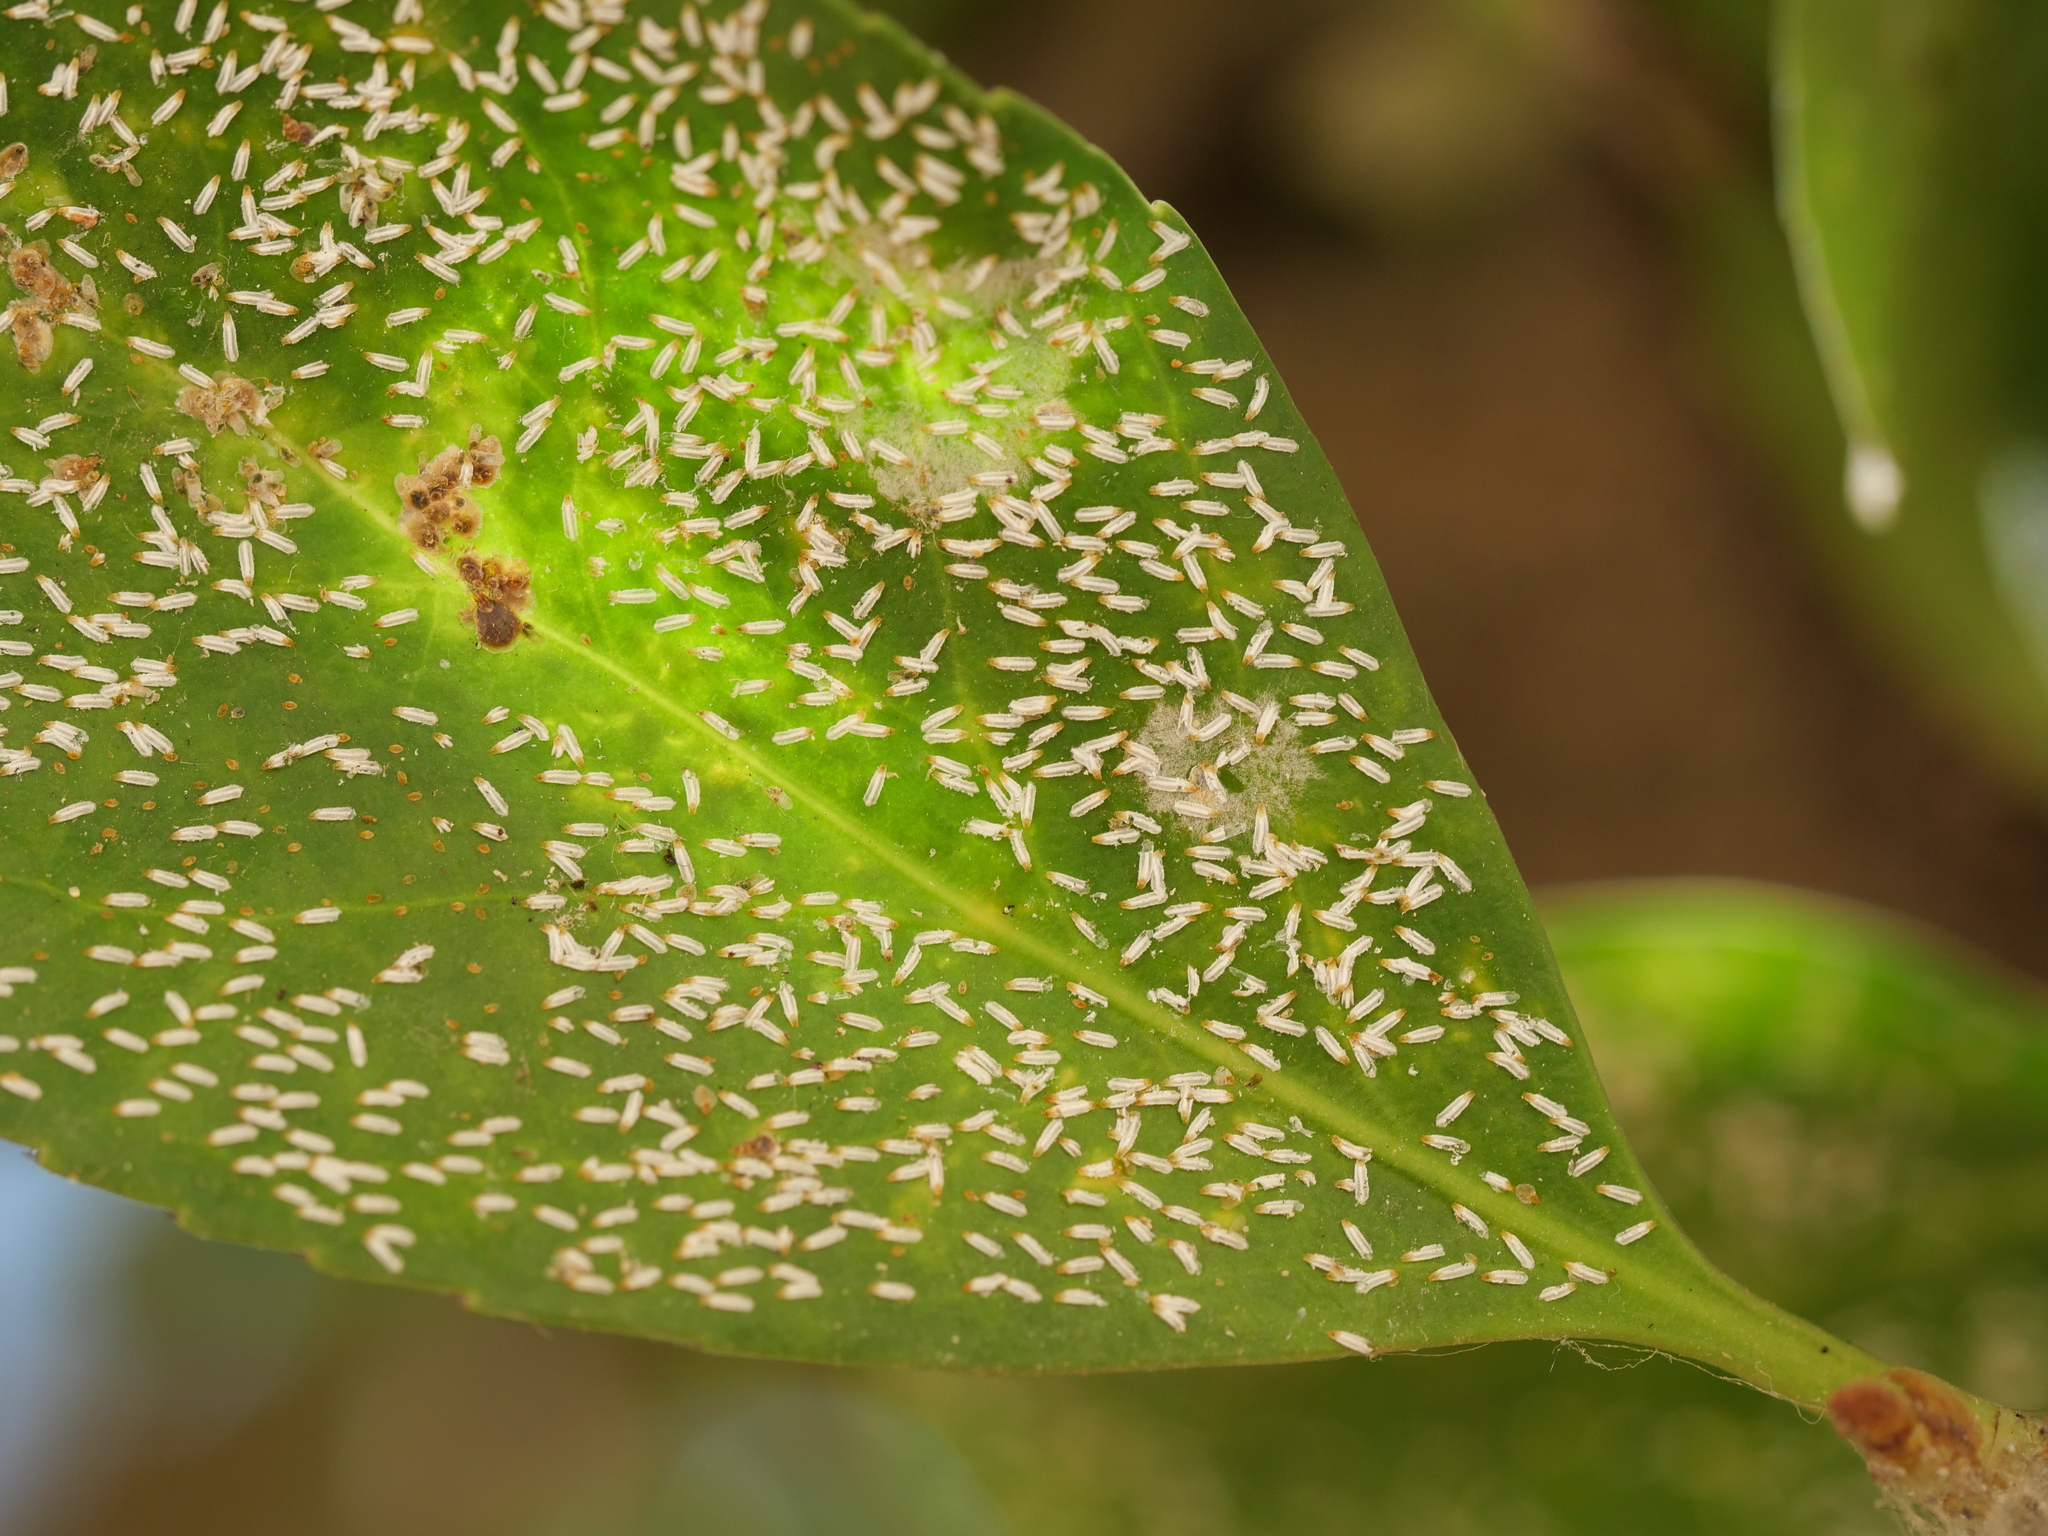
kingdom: Animalia
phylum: Arthropoda
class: Insecta
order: Hemiptera
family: Diaspididae
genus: Unaspis
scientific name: Unaspis euonymi
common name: Euonymus scale
